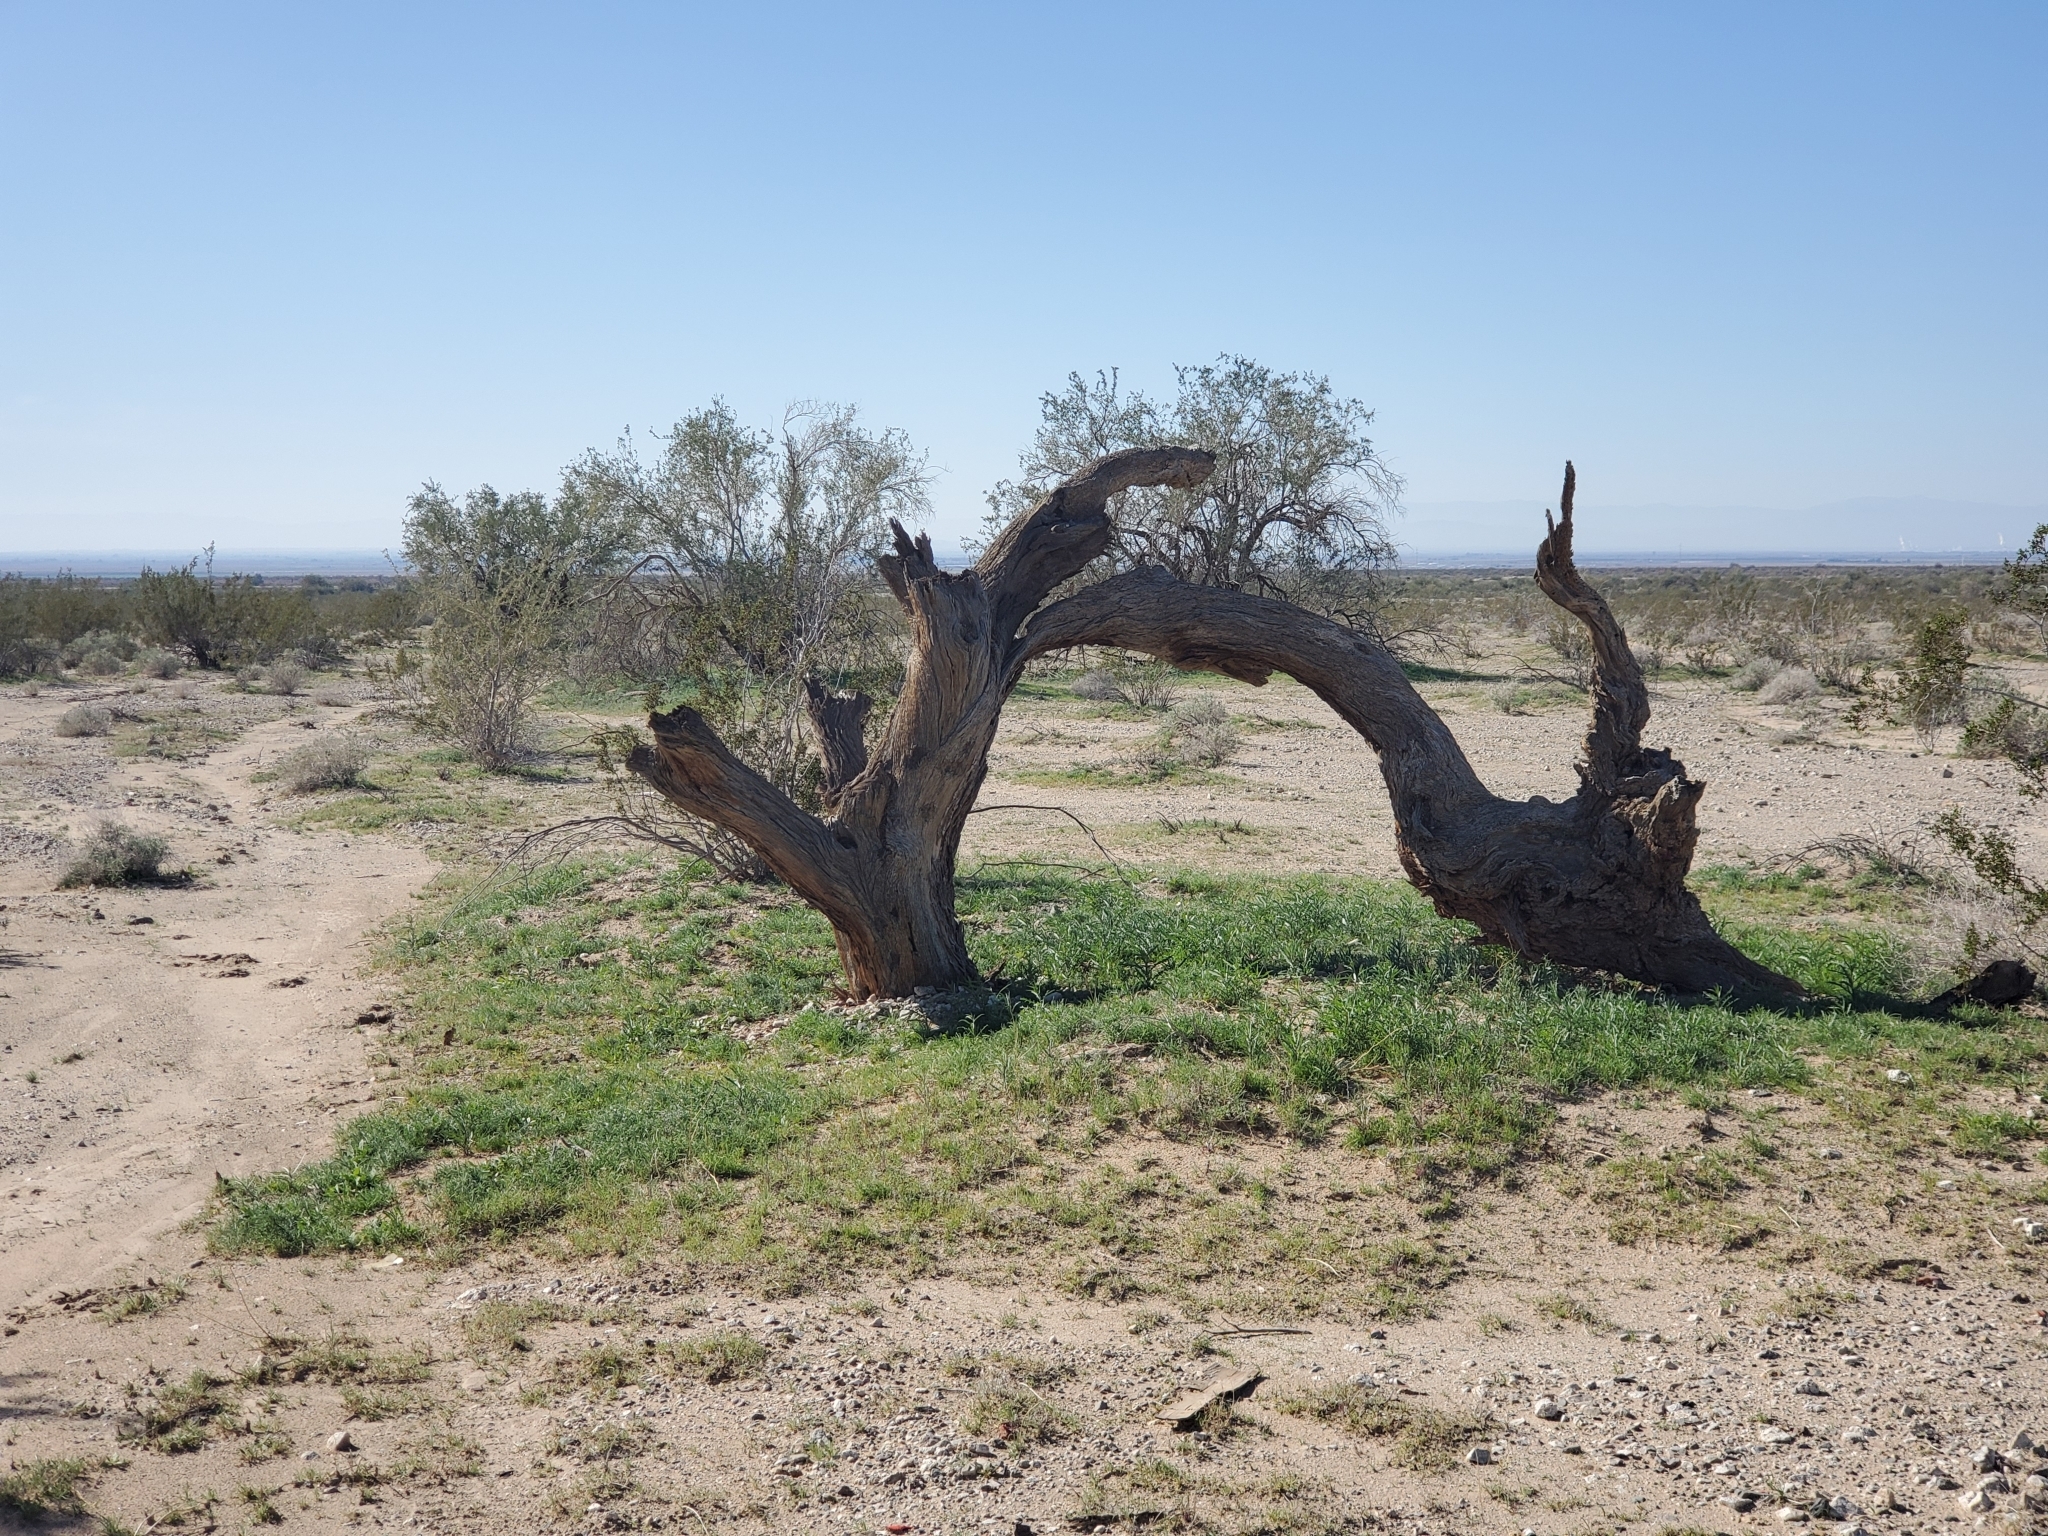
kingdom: Plantae
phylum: Tracheophyta
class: Magnoliopsida
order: Fabales
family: Fabaceae
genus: Olneya
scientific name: Olneya tesota
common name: Desert ironwood
